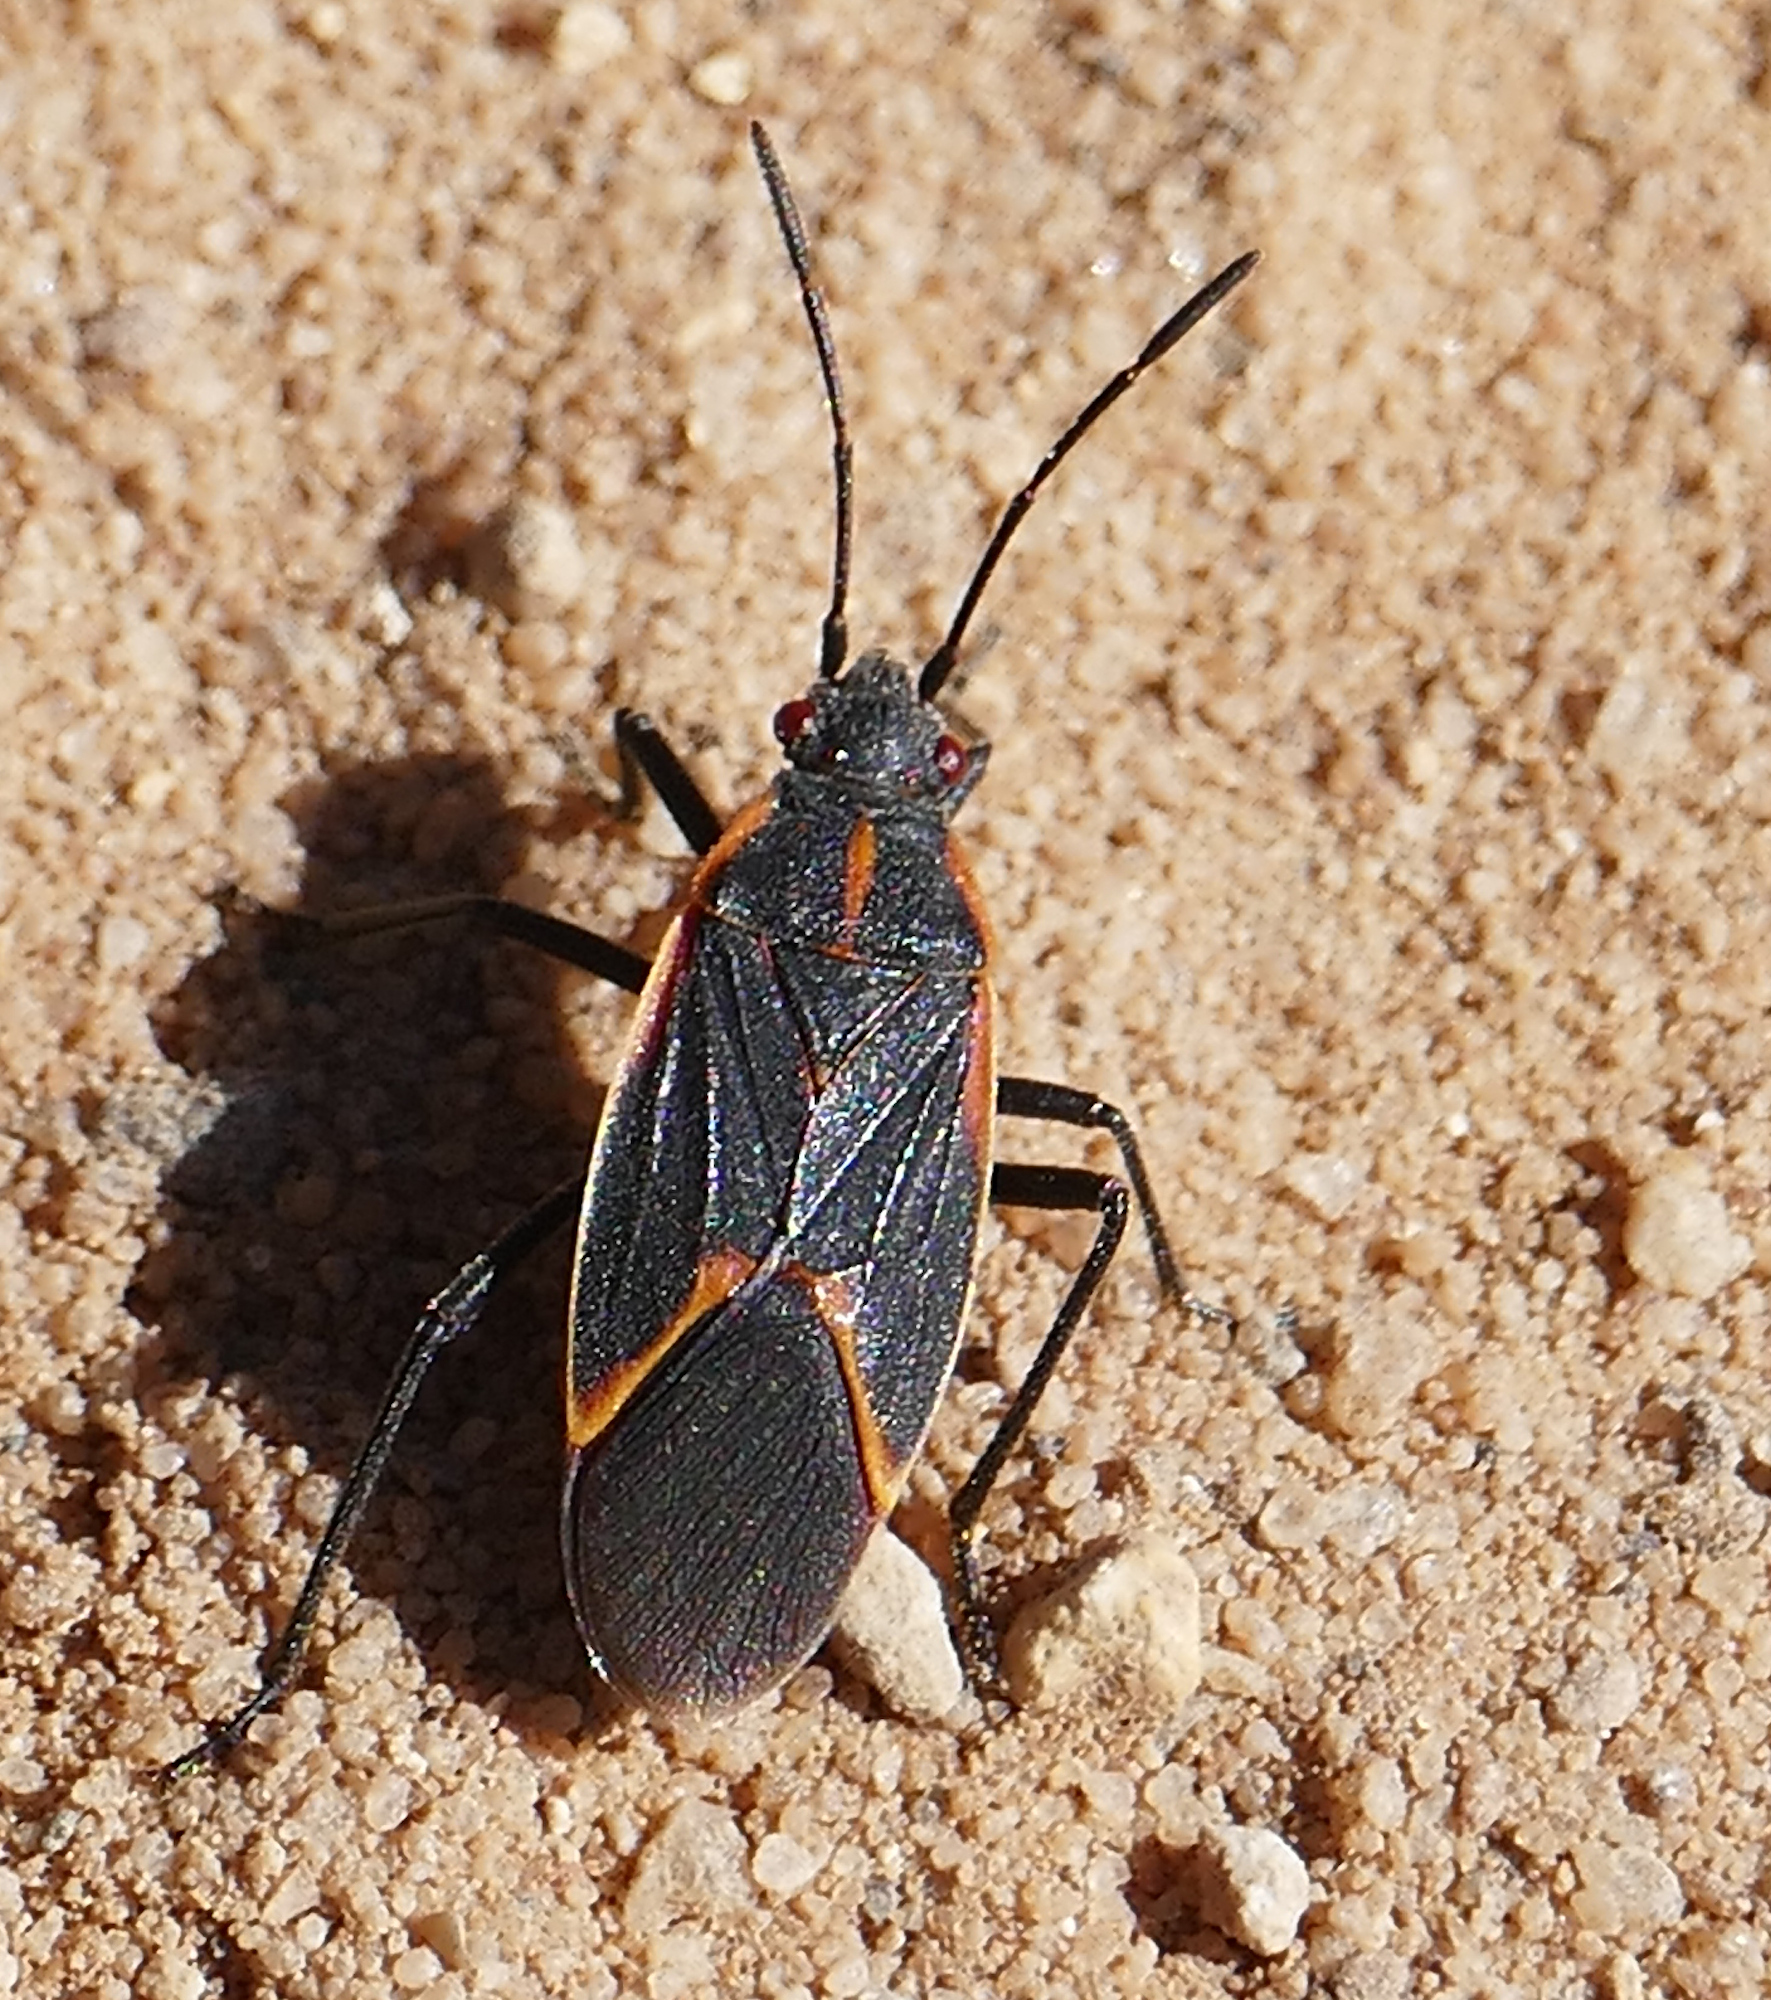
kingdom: Animalia
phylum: Arthropoda
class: Insecta
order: Hemiptera
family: Rhopalidae
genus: Boisea
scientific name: Boisea trivittata
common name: Boxelder bug
